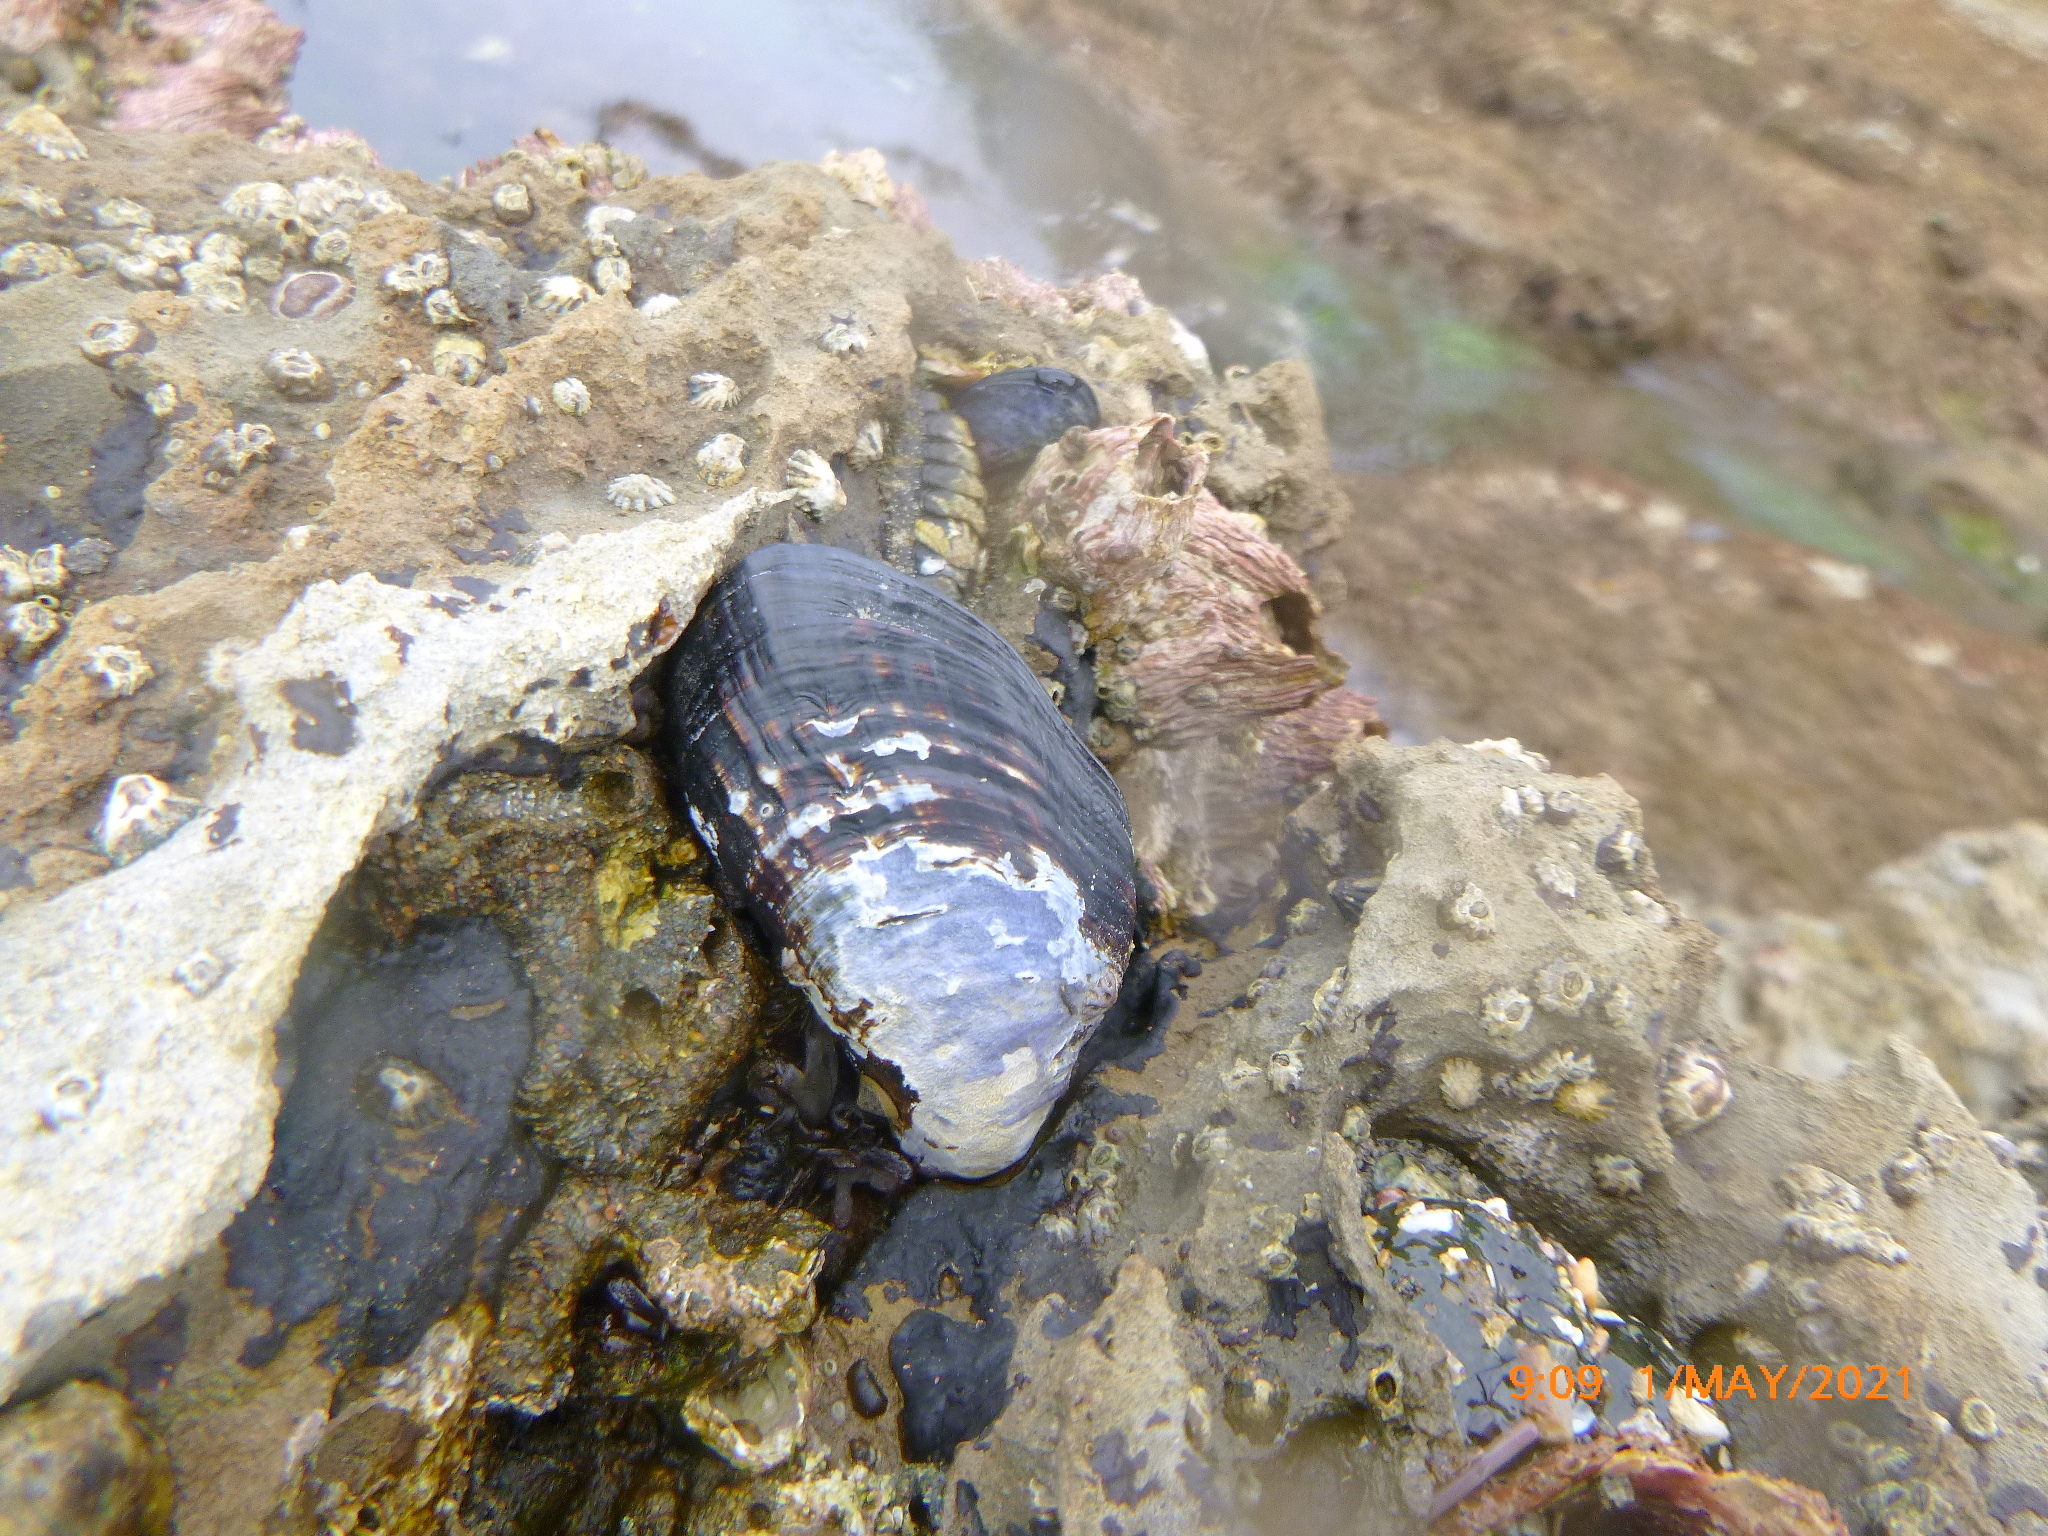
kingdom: Animalia
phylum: Mollusca
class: Bivalvia
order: Mytilida
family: Mytilidae
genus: Mytilus
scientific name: Mytilus californianus
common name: California mussel
